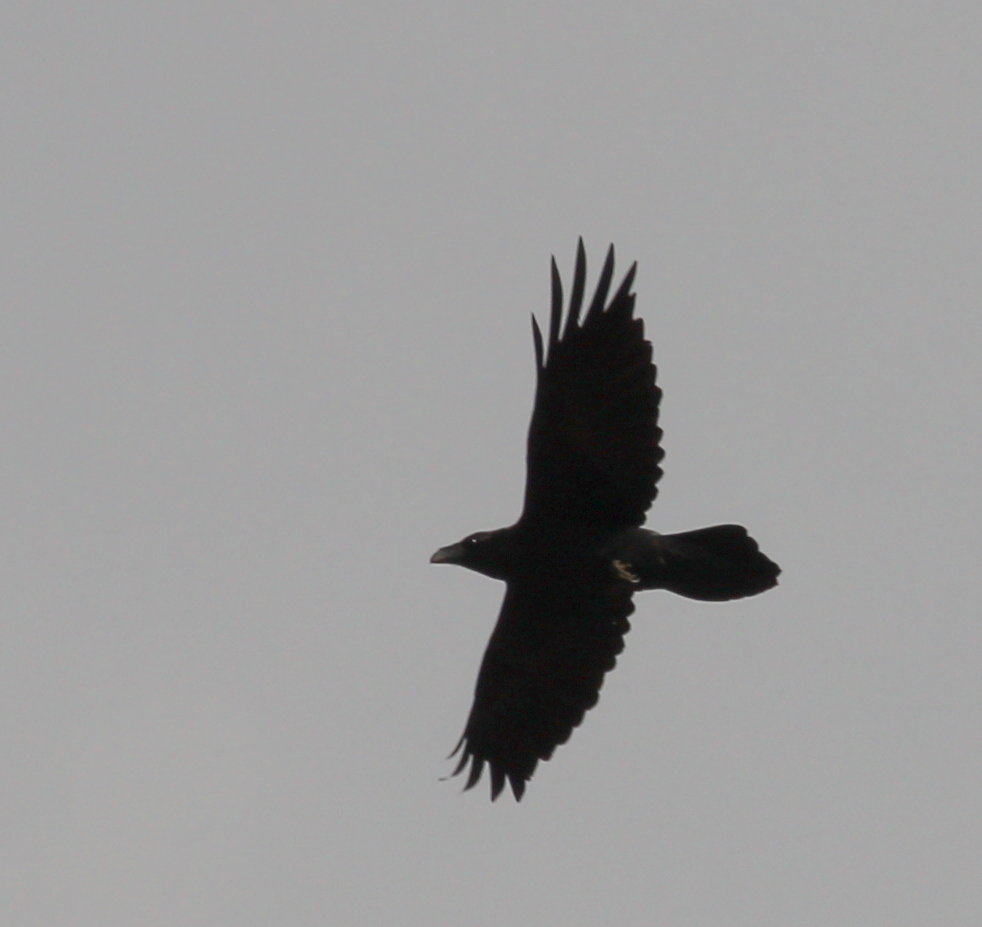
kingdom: Animalia
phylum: Chordata
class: Aves
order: Passeriformes
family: Corvidae
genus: Corvus
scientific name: Corvus corax
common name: Common raven
